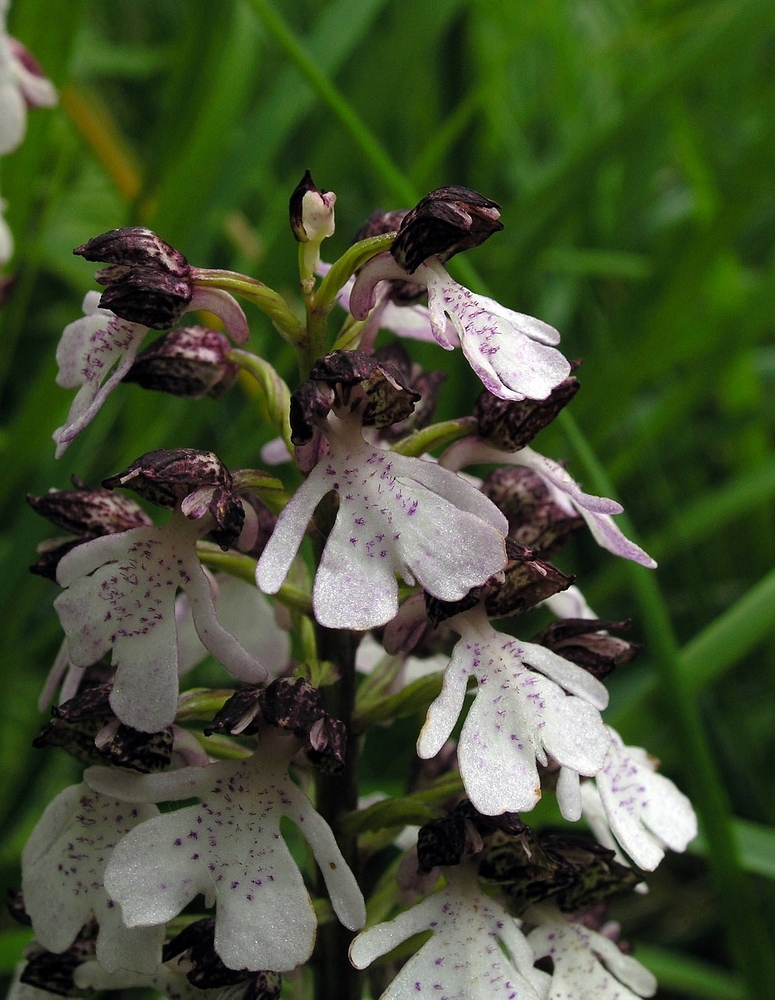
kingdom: Plantae
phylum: Tracheophyta
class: Liliopsida
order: Asparagales
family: Orchidaceae
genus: Orchis
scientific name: Orchis purpurea
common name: Lady orchid
